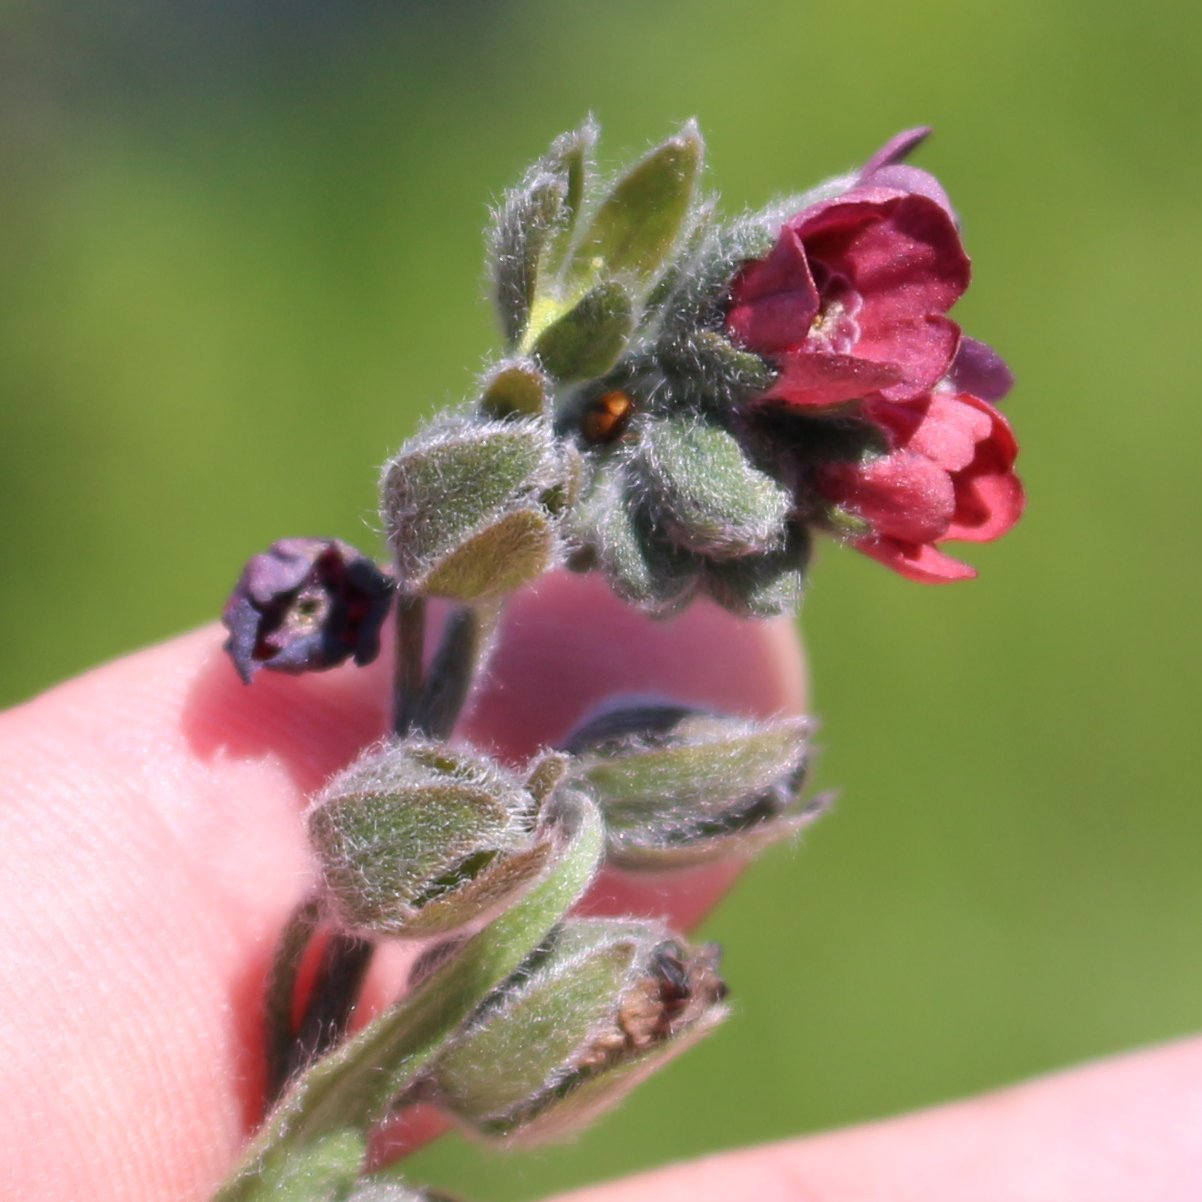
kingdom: Plantae
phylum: Tracheophyta
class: Magnoliopsida
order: Boraginales
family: Boraginaceae
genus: Cynoglossum
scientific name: Cynoglossum officinale
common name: Hound's-tongue
